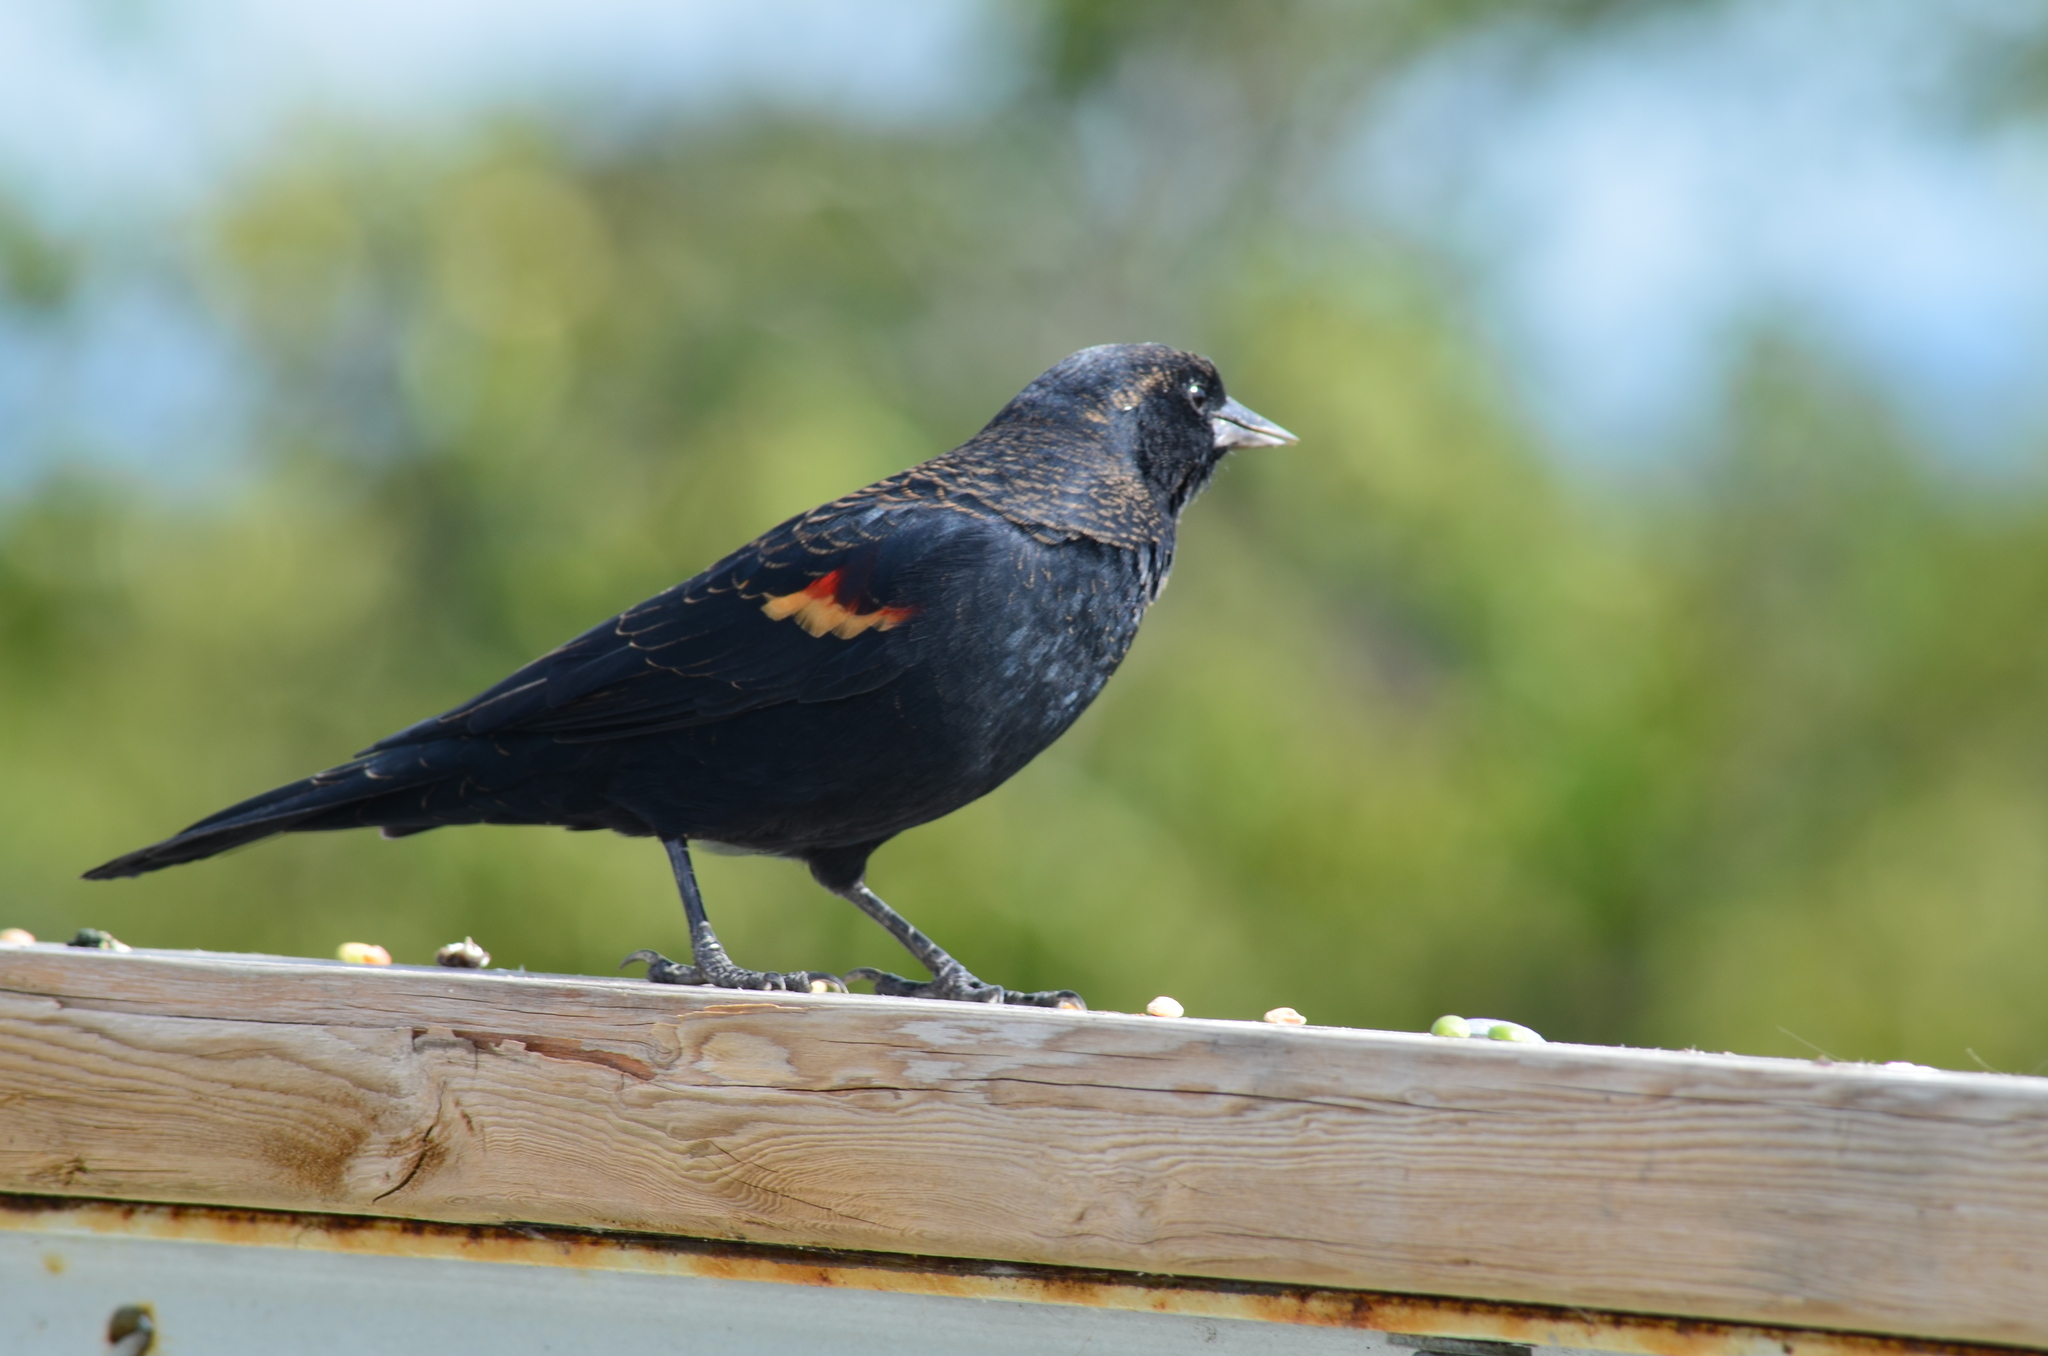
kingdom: Animalia
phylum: Chordata
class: Aves
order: Passeriformes
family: Icteridae
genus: Agelaius
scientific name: Agelaius phoeniceus
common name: Red-winged blackbird
